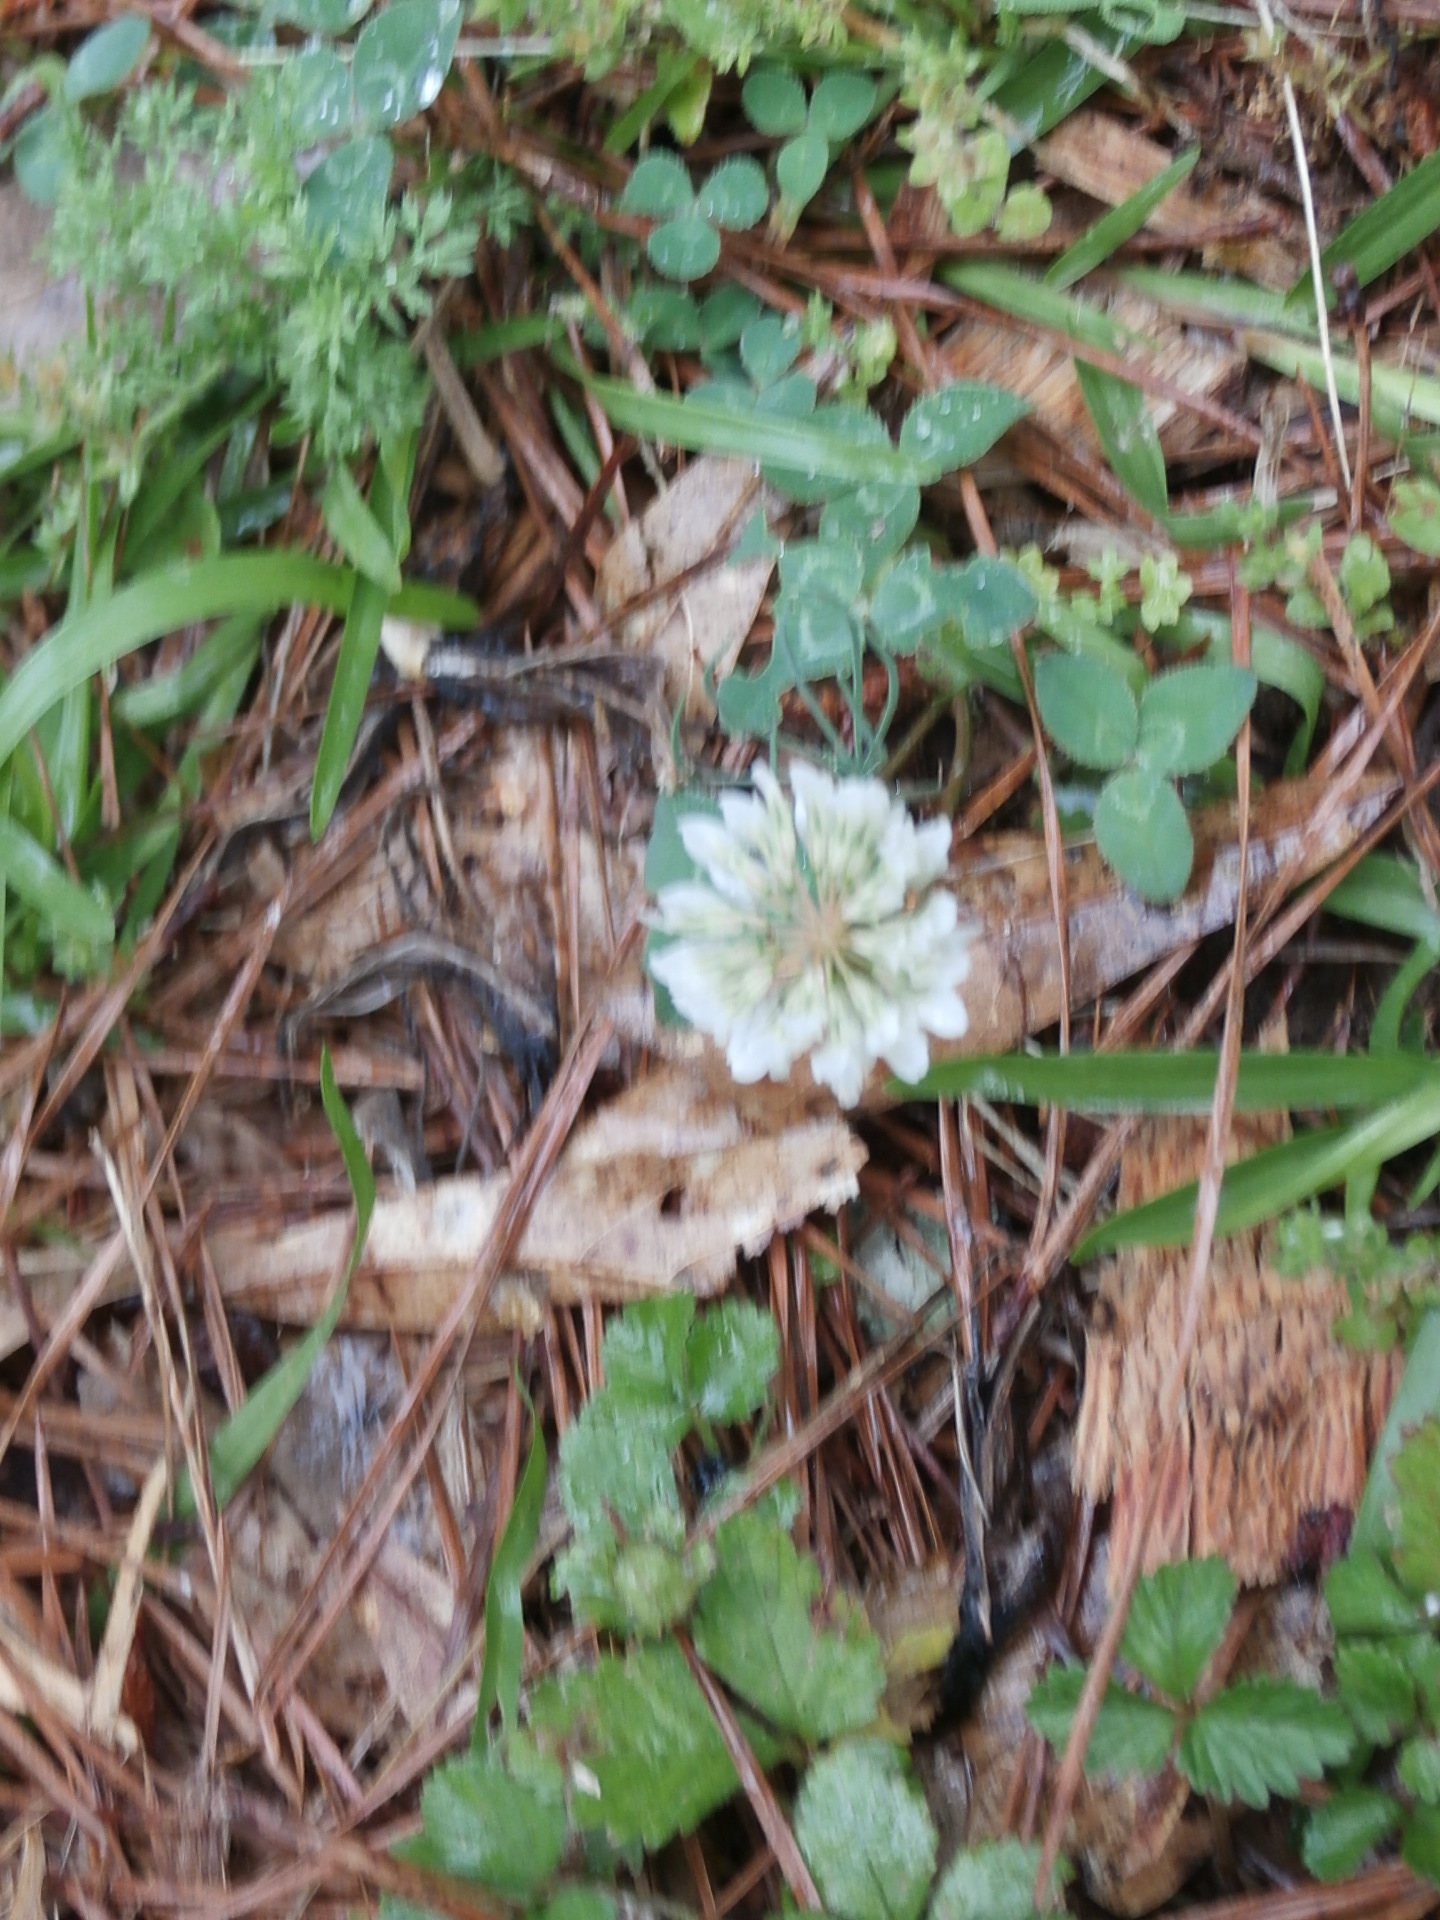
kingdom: Plantae
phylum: Tracheophyta
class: Magnoliopsida
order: Fabales
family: Fabaceae
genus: Trifolium
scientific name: Trifolium repens
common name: White clover
